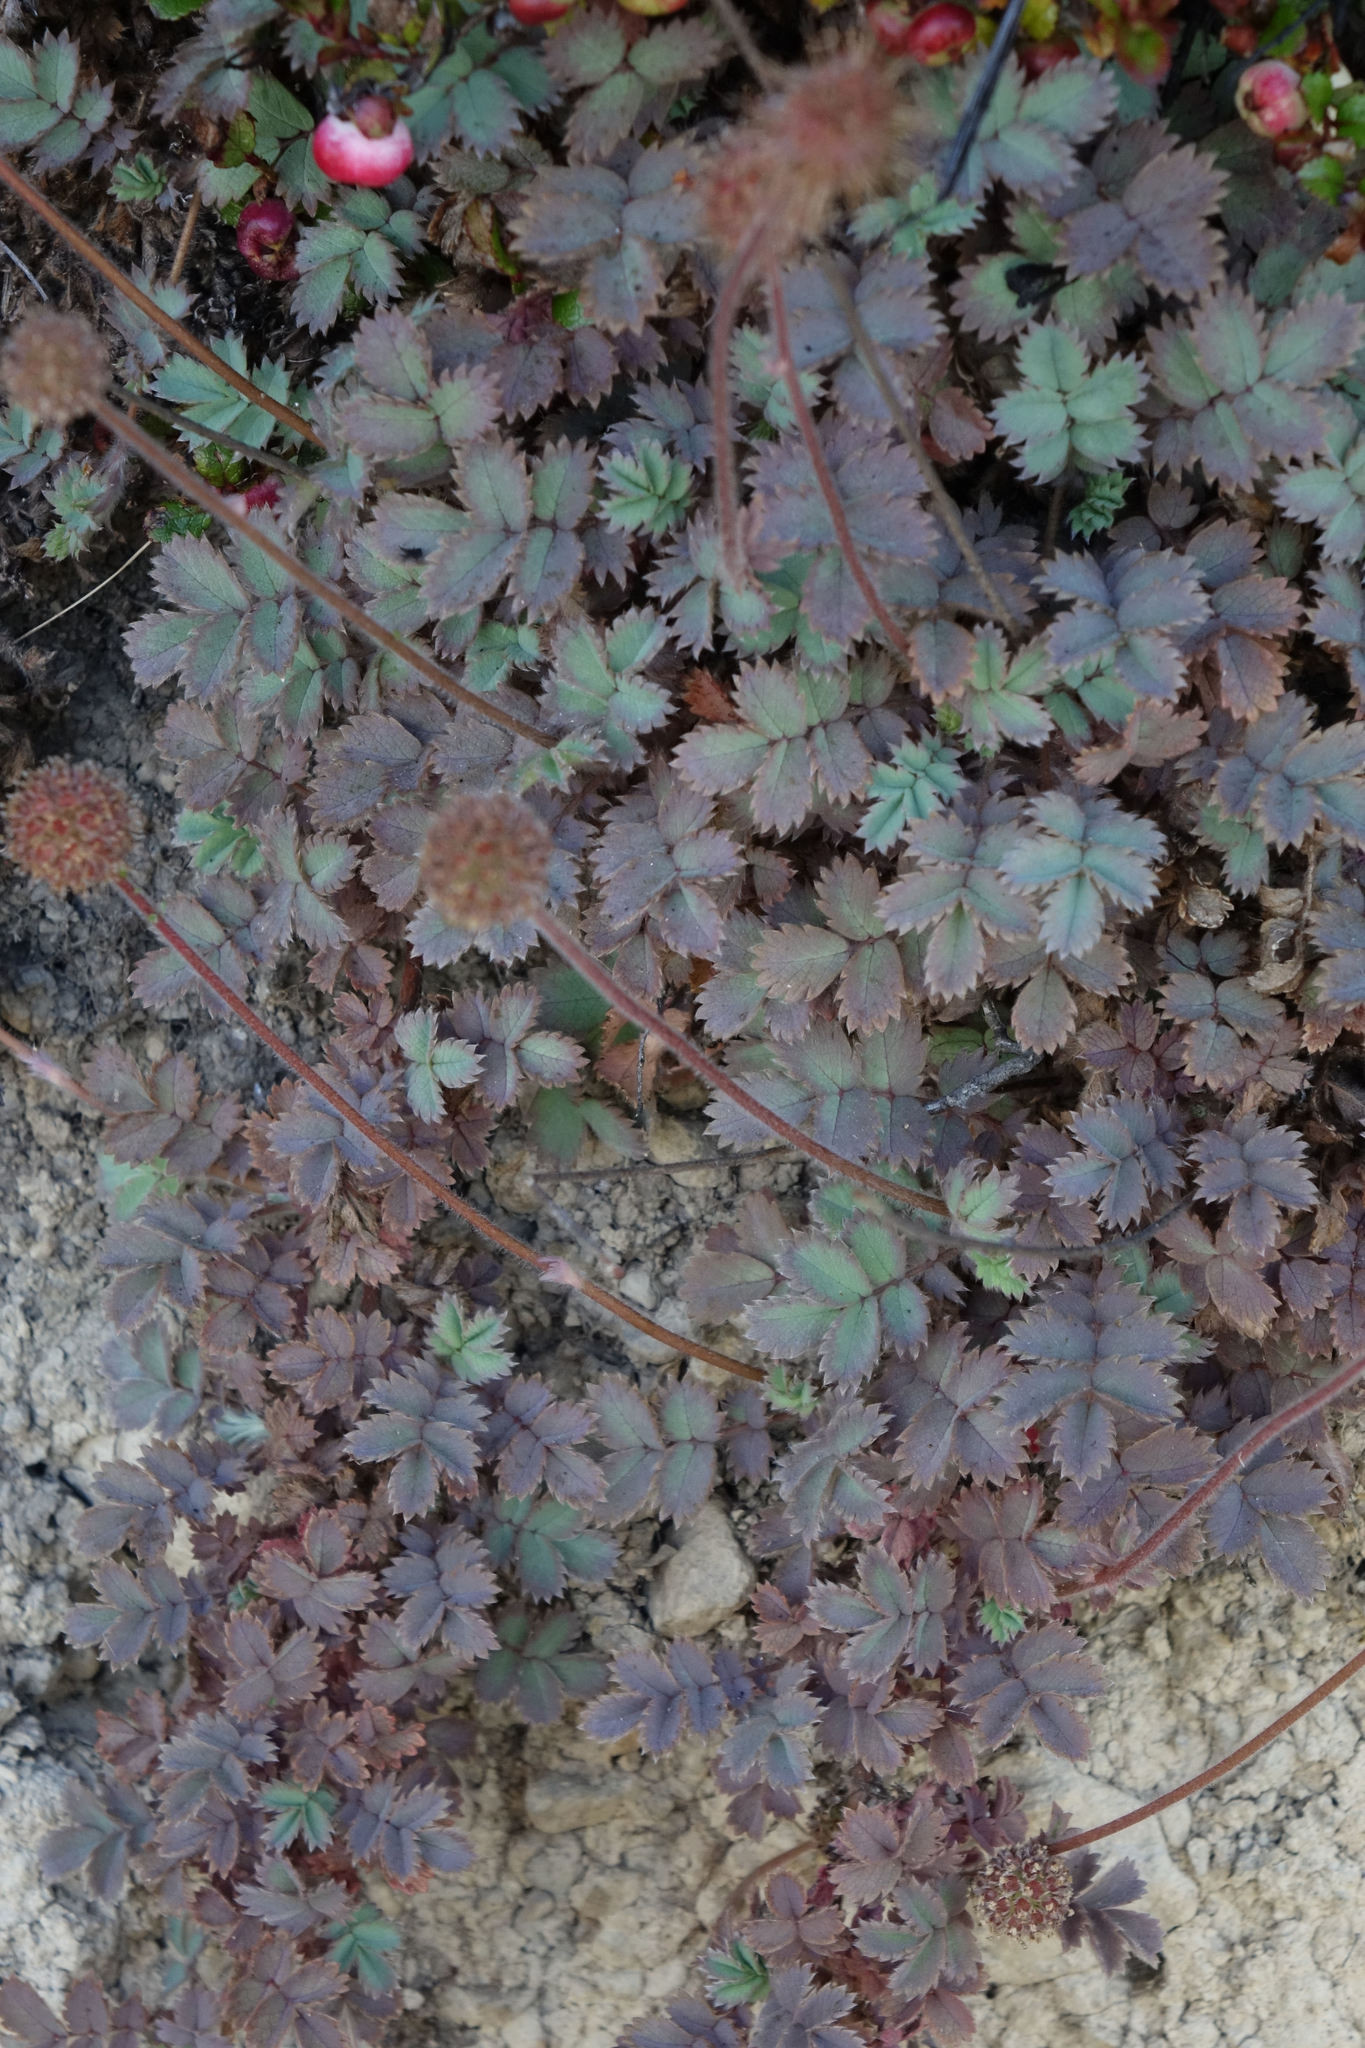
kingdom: Plantae
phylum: Tracheophyta
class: Magnoliopsida
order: Rosales
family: Rosaceae
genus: Acaena
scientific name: Acaena caesiiglauca
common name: Glaucous pirri-pirri-bur
